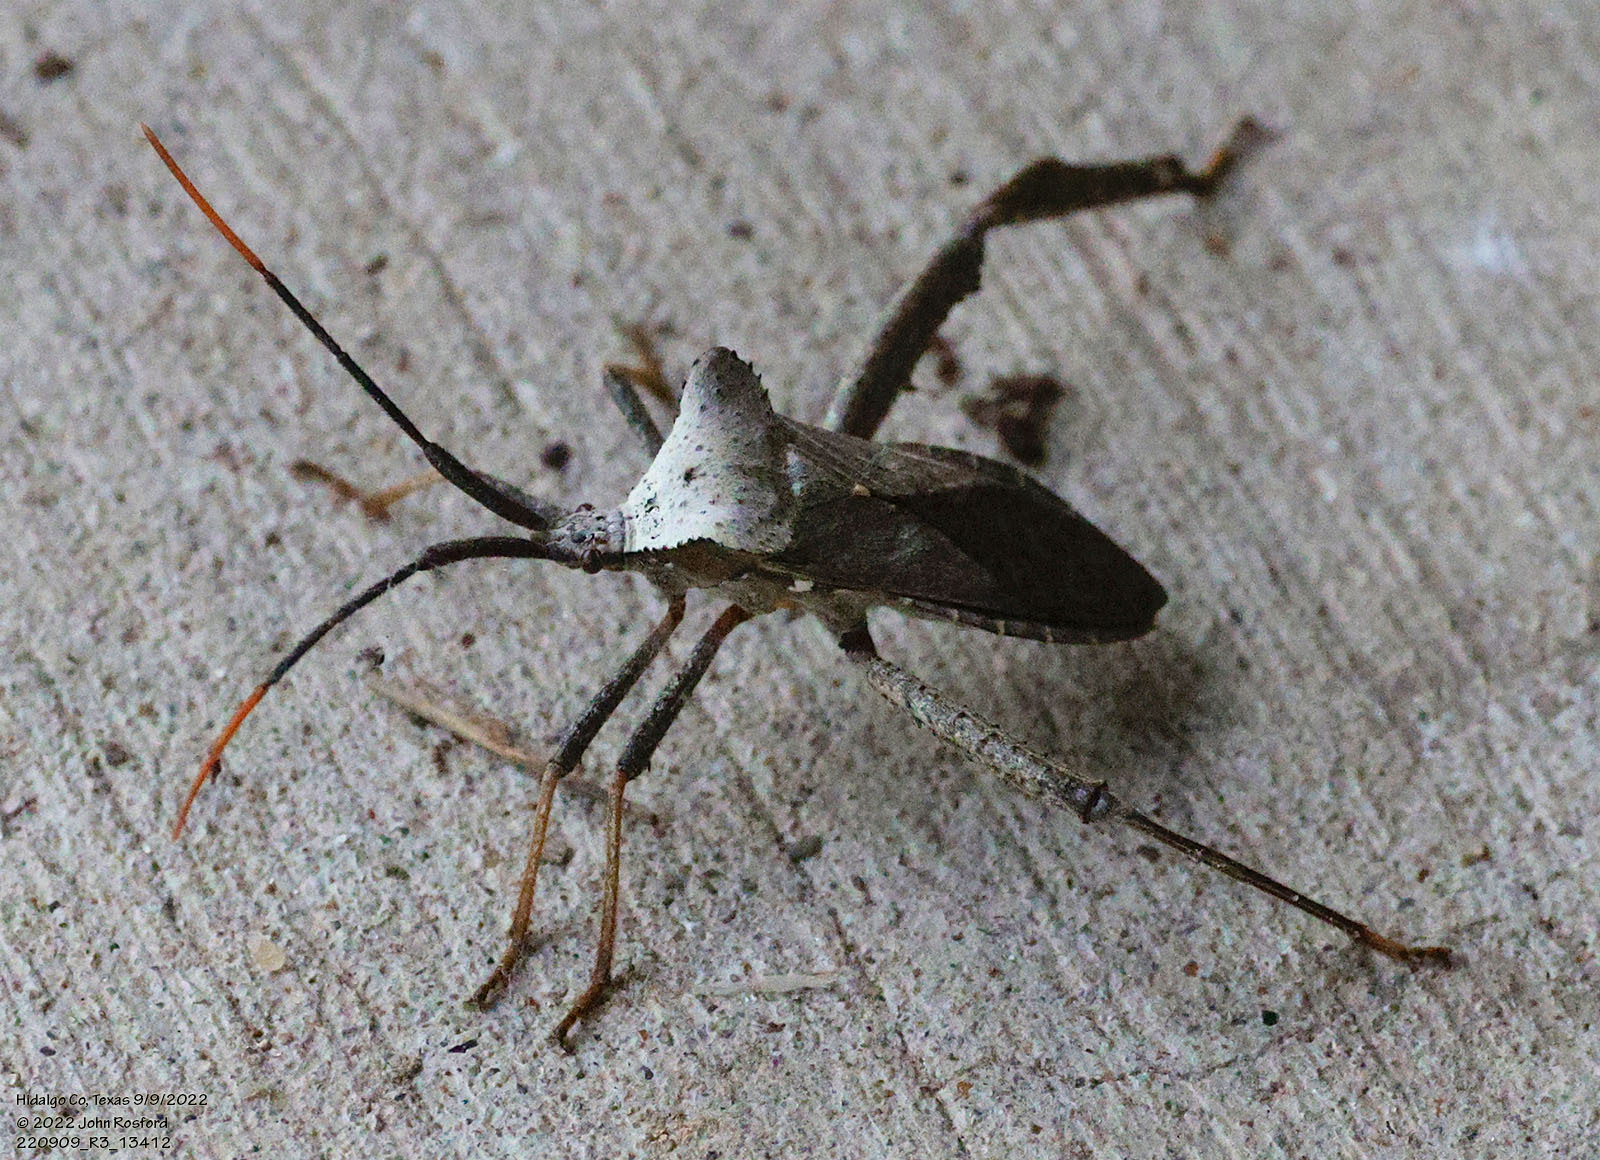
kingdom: Animalia
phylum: Arthropoda
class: Insecta
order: Hemiptera
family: Coreidae
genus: Acanthocephala
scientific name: Acanthocephala alata
